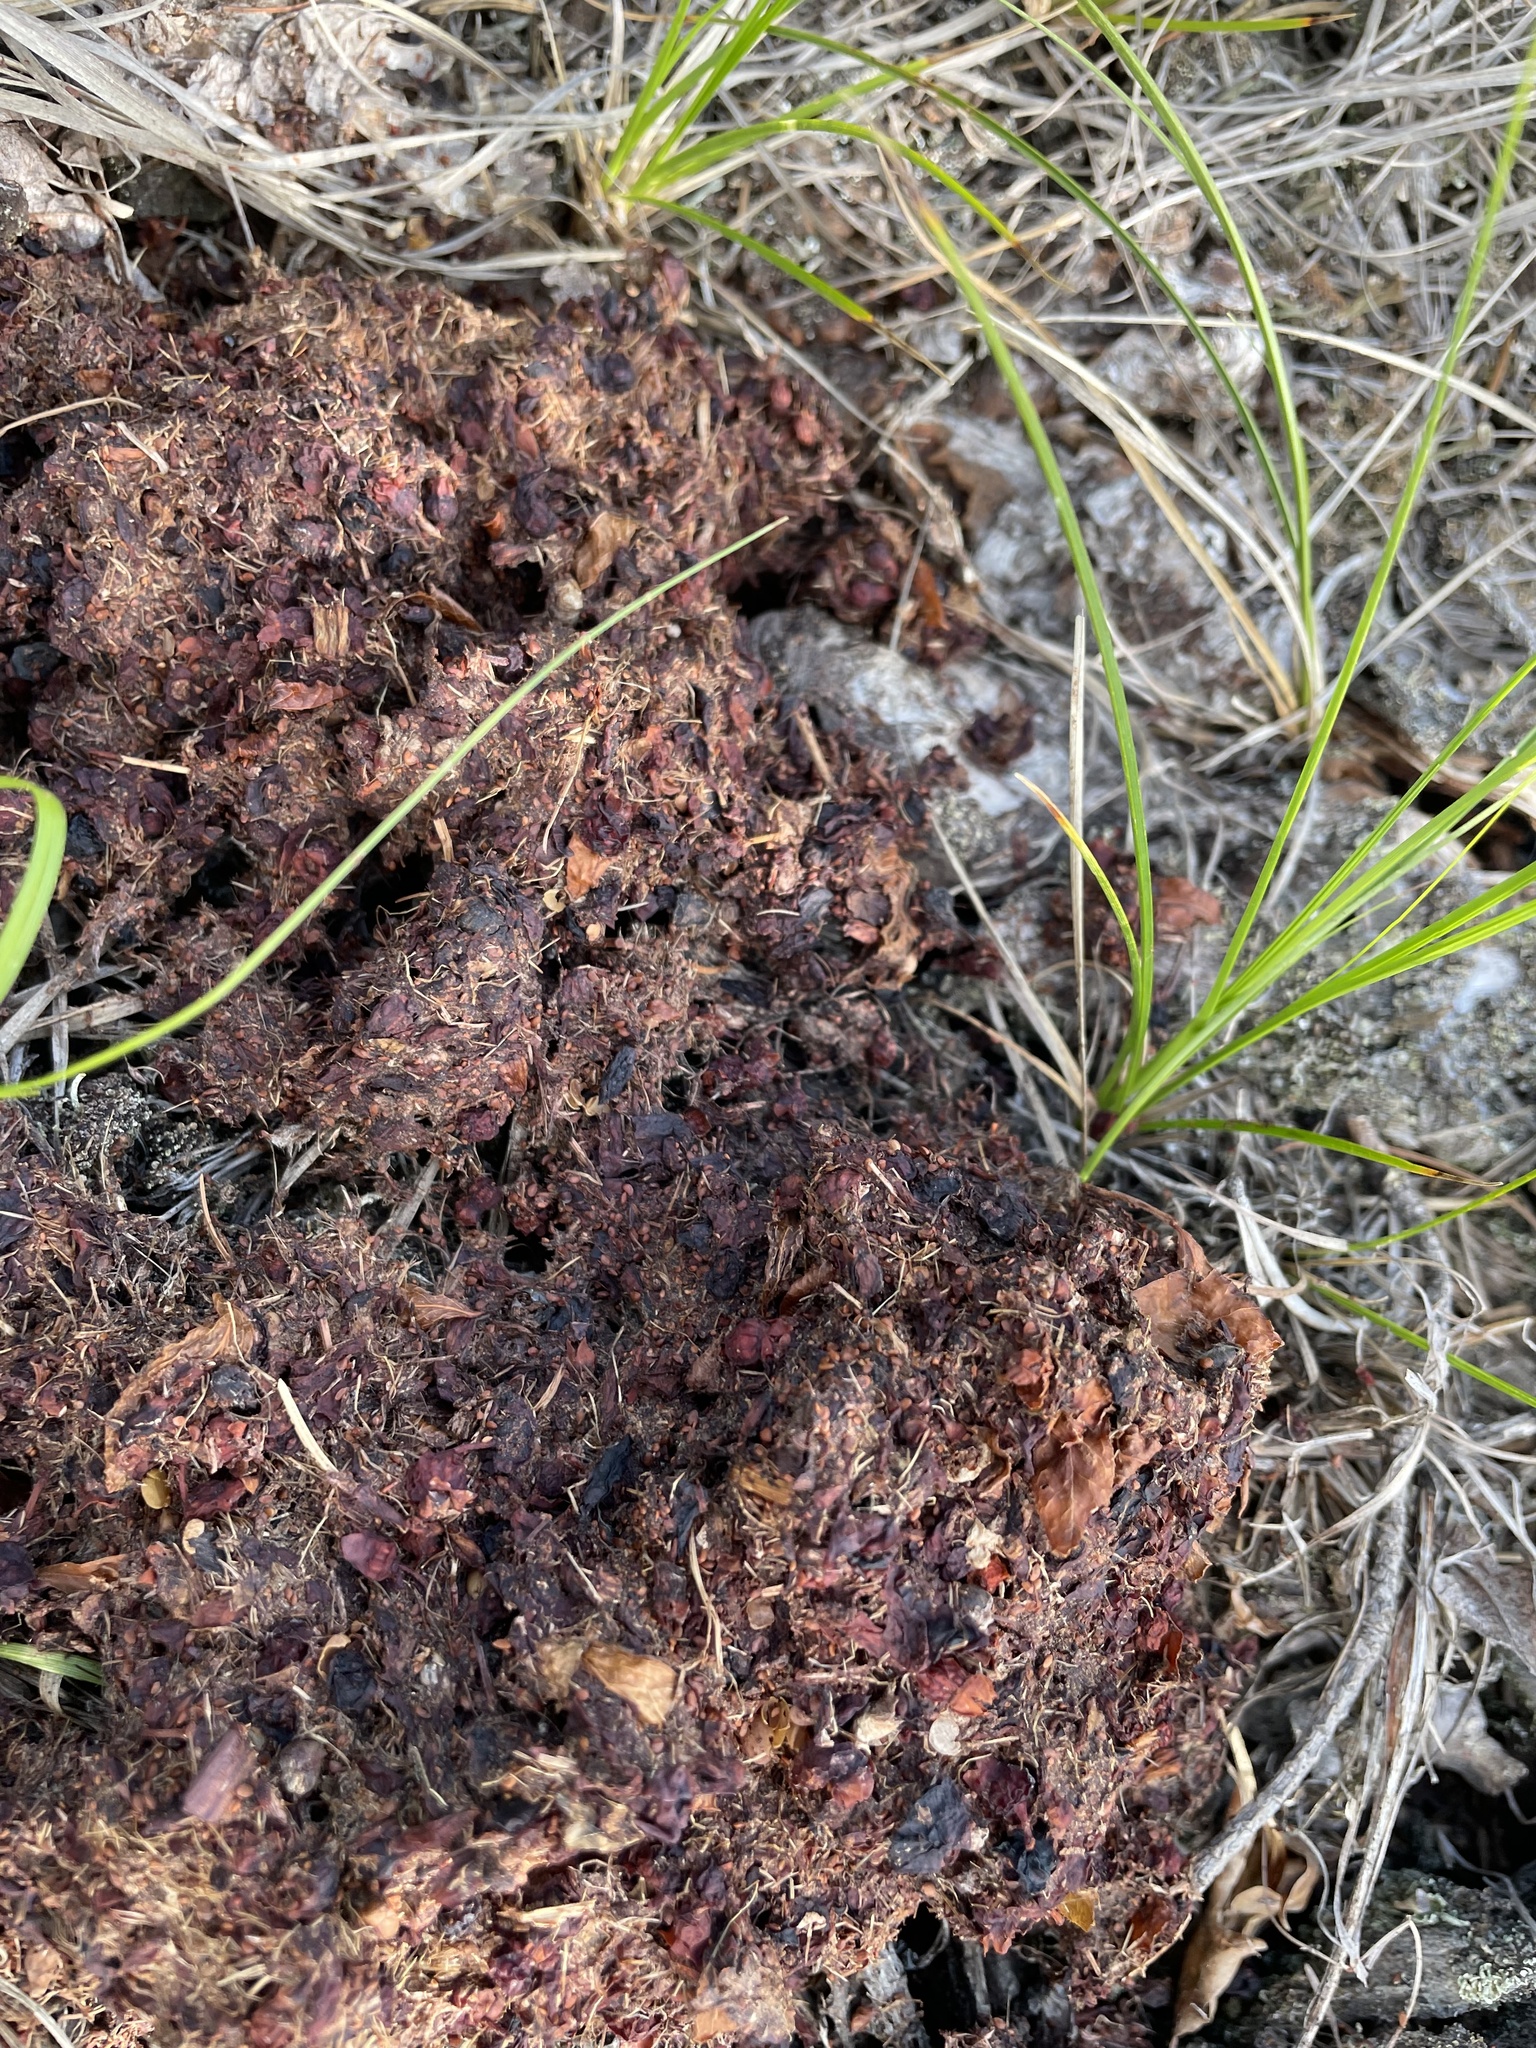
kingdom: Animalia
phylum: Chordata
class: Mammalia
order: Carnivora
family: Ursidae
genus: Ursus
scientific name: Ursus americanus
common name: American black bear
